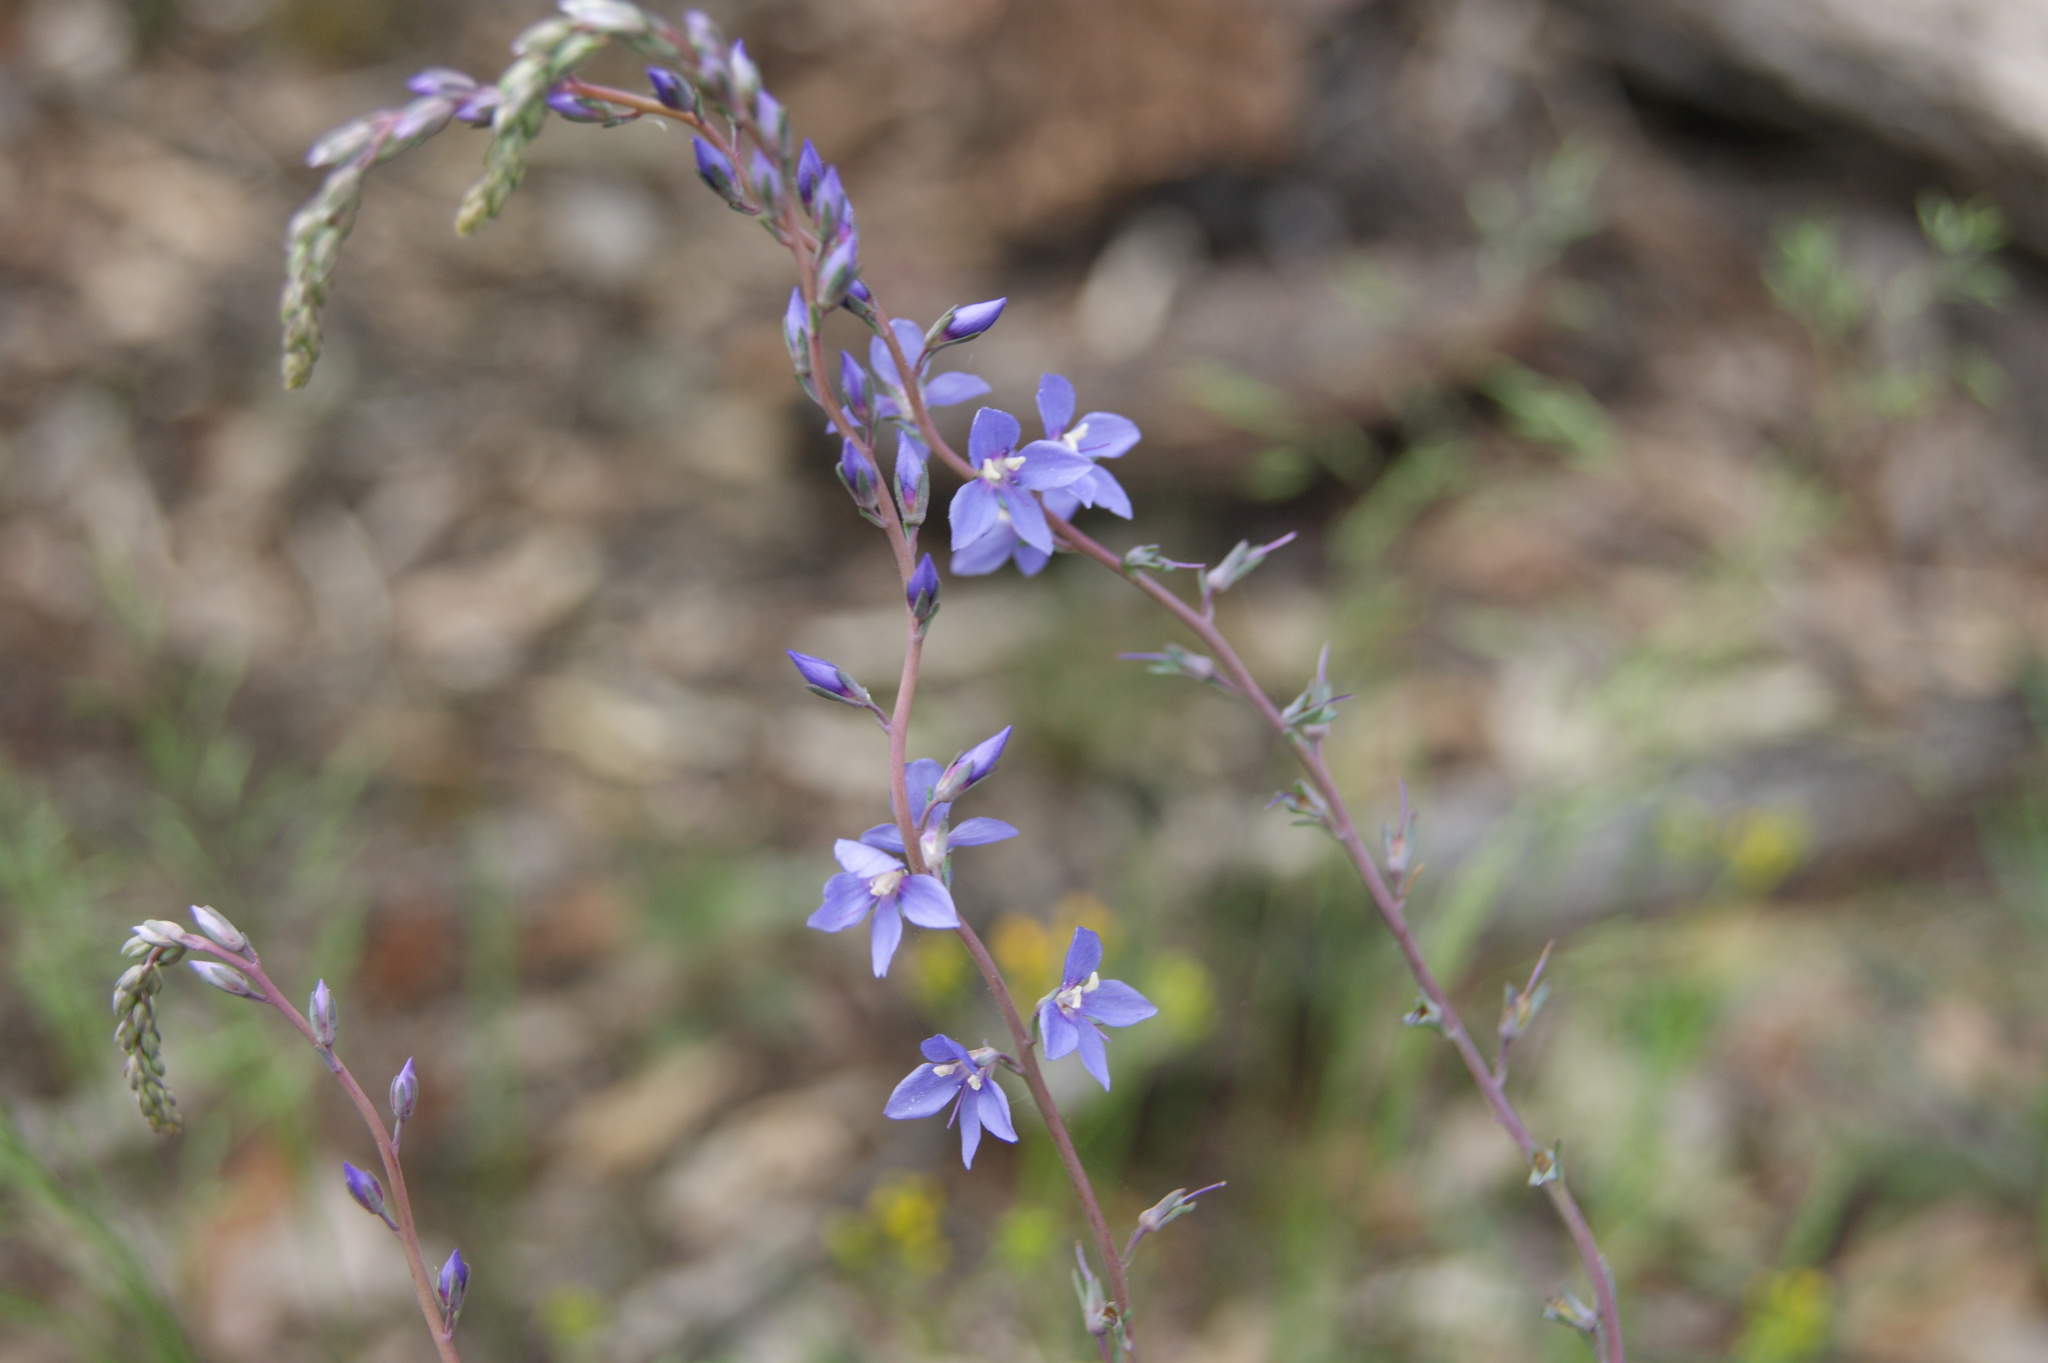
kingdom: Plantae
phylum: Tracheophyta
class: Magnoliopsida
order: Lamiales
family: Plantaginaceae
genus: Veronica
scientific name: Veronica perfoliata
